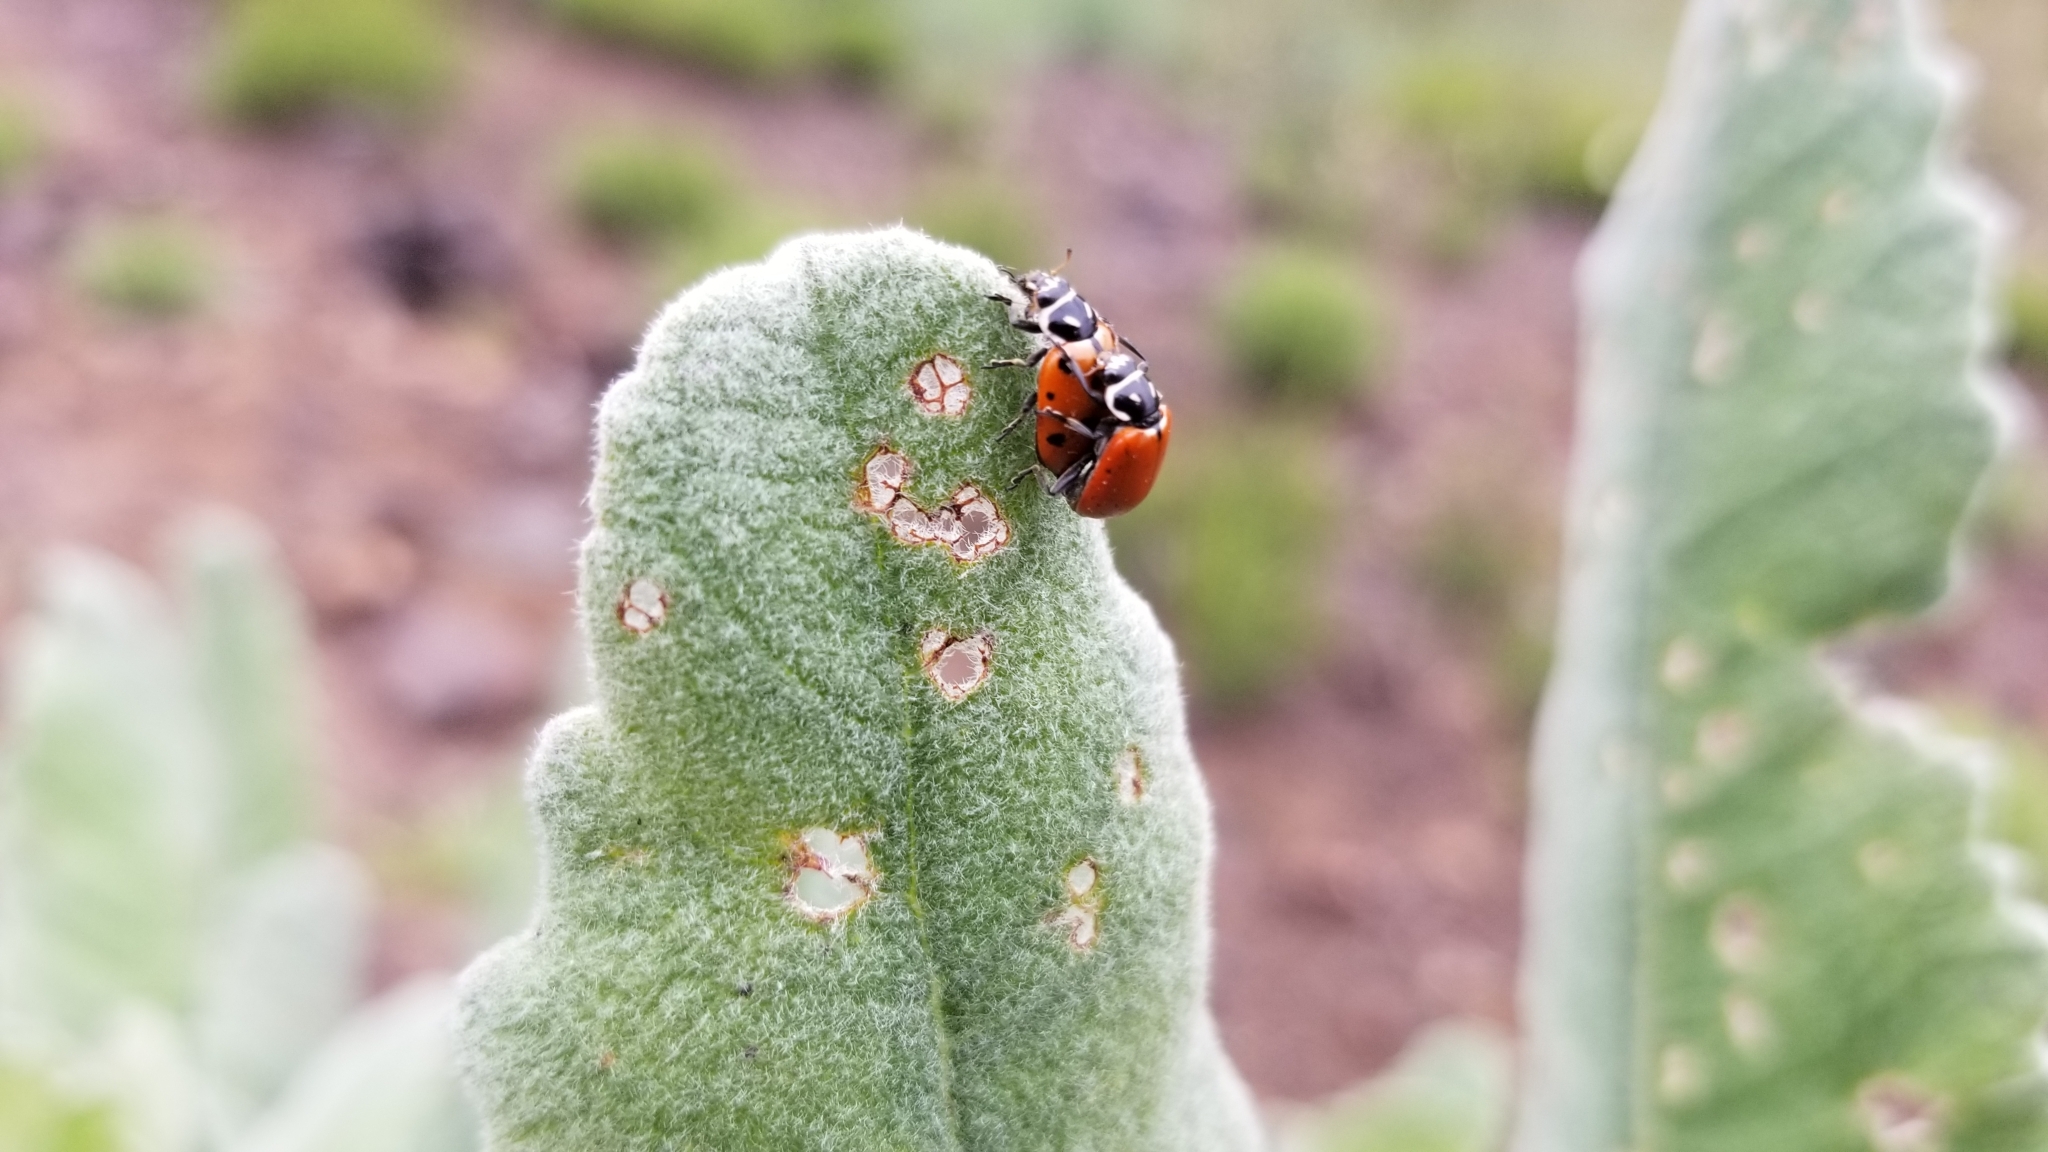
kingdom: Animalia
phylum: Arthropoda
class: Insecta
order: Coleoptera
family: Coccinellidae
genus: Hippodamia
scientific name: Hippodamia convergens
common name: Convergent lady beetle
